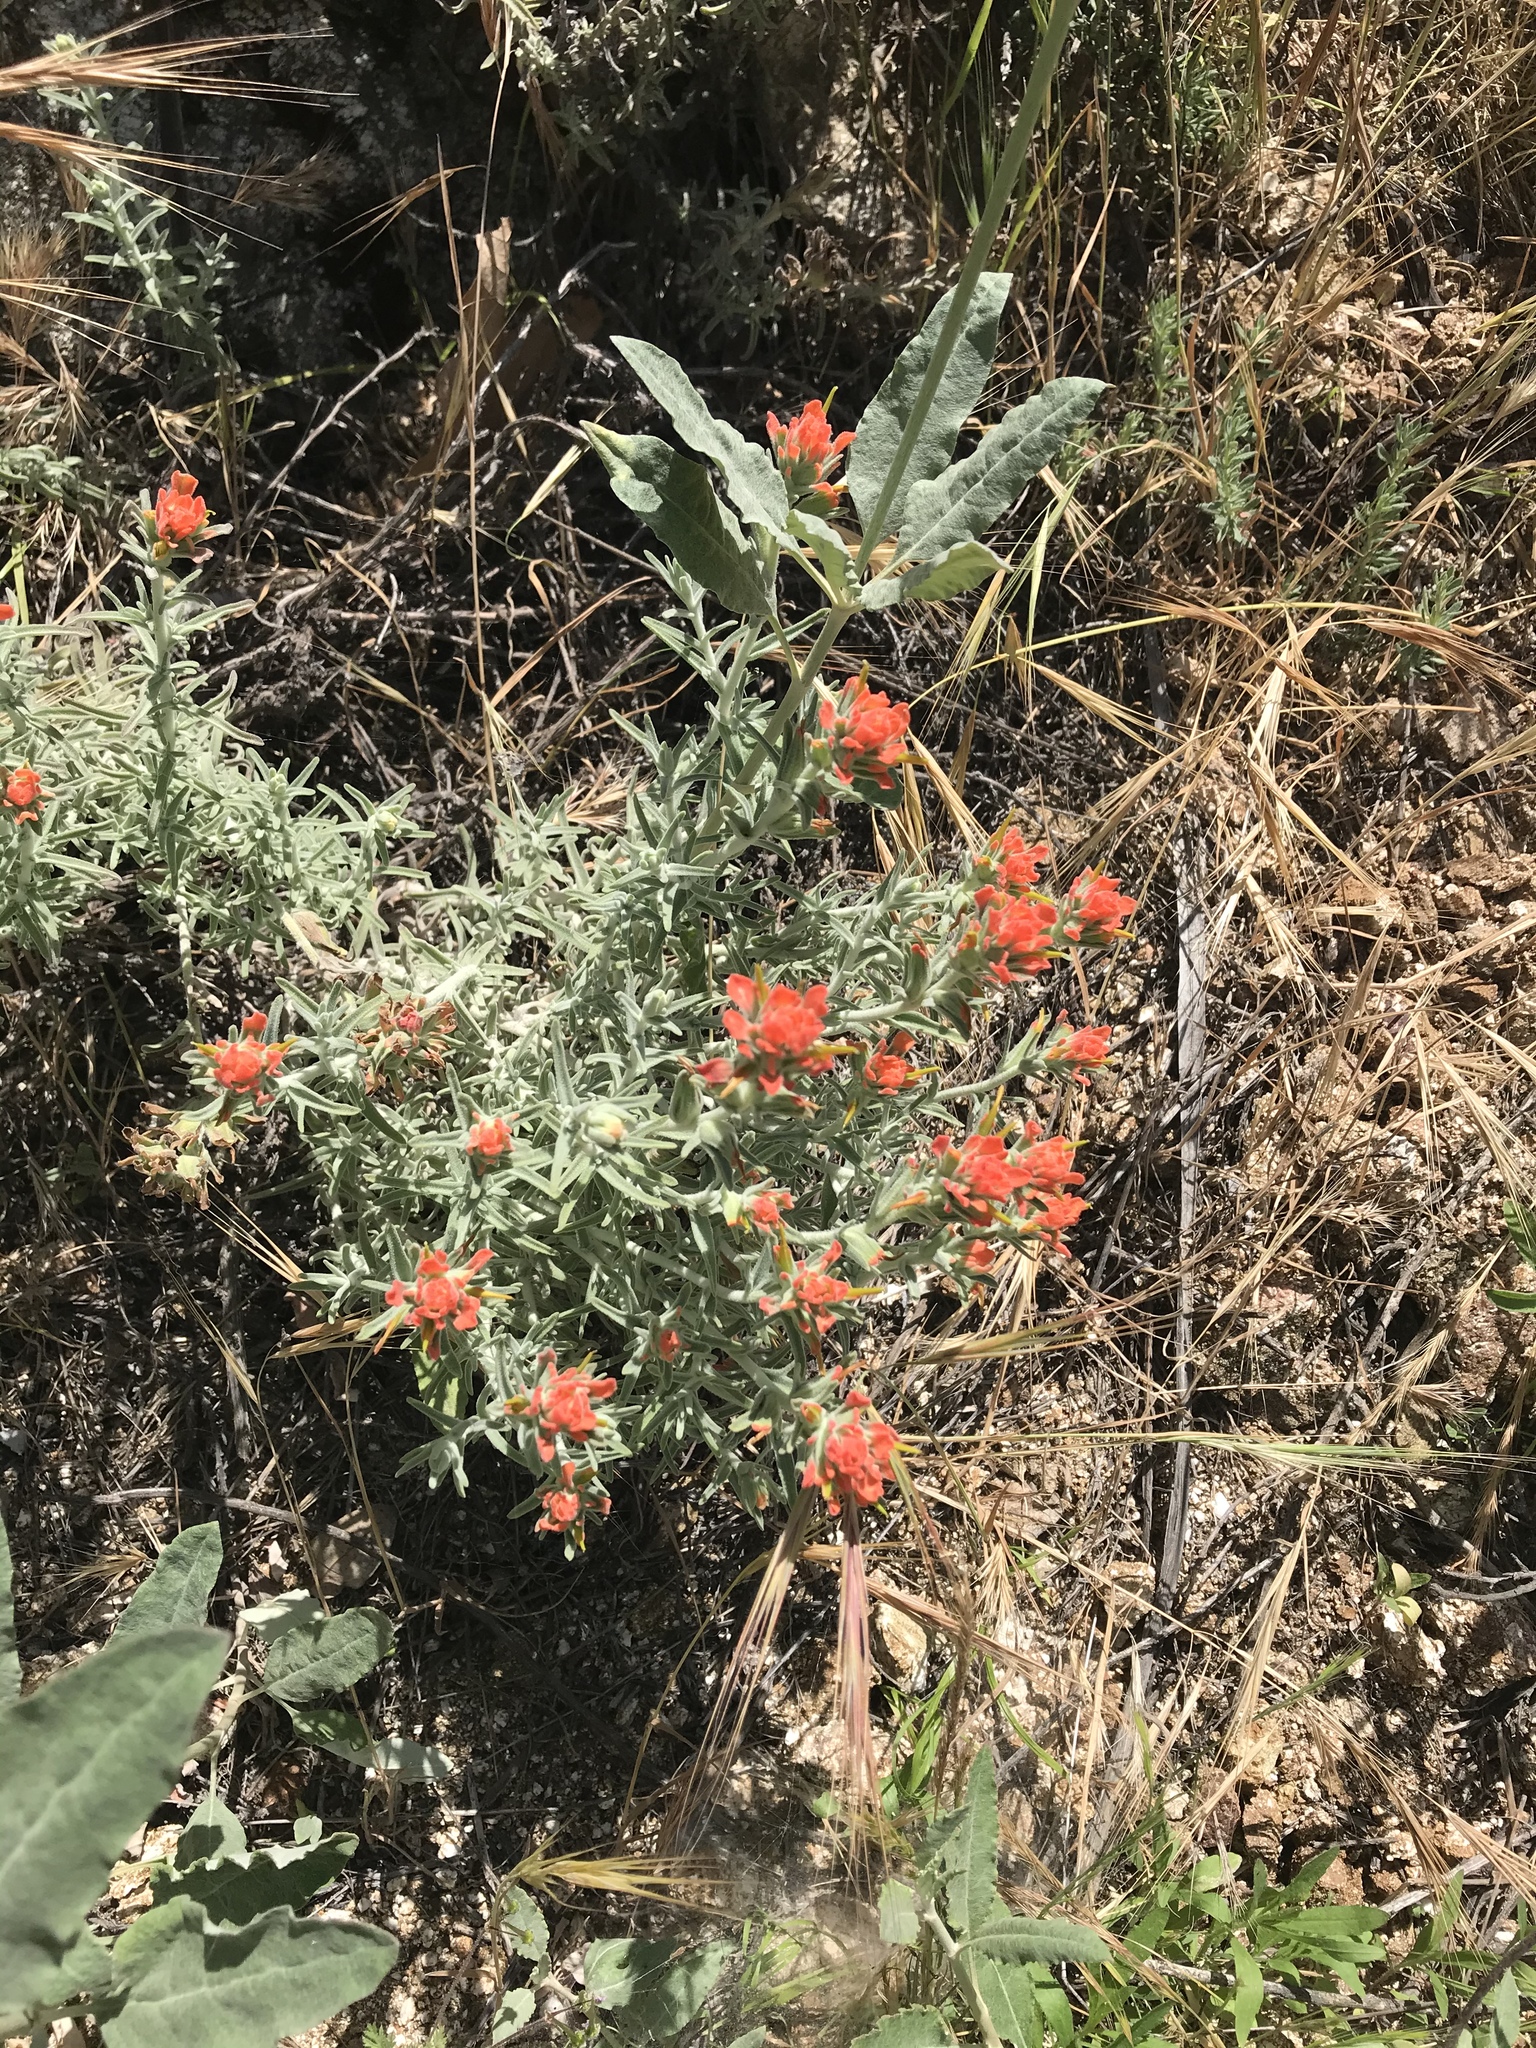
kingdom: Plantae
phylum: Tracheophyta
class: Magnoliopsida
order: Lamiales
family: Orobanchaceae
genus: Castilleja
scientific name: Castilleja foliolosa
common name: Woolly indian paintbrush
